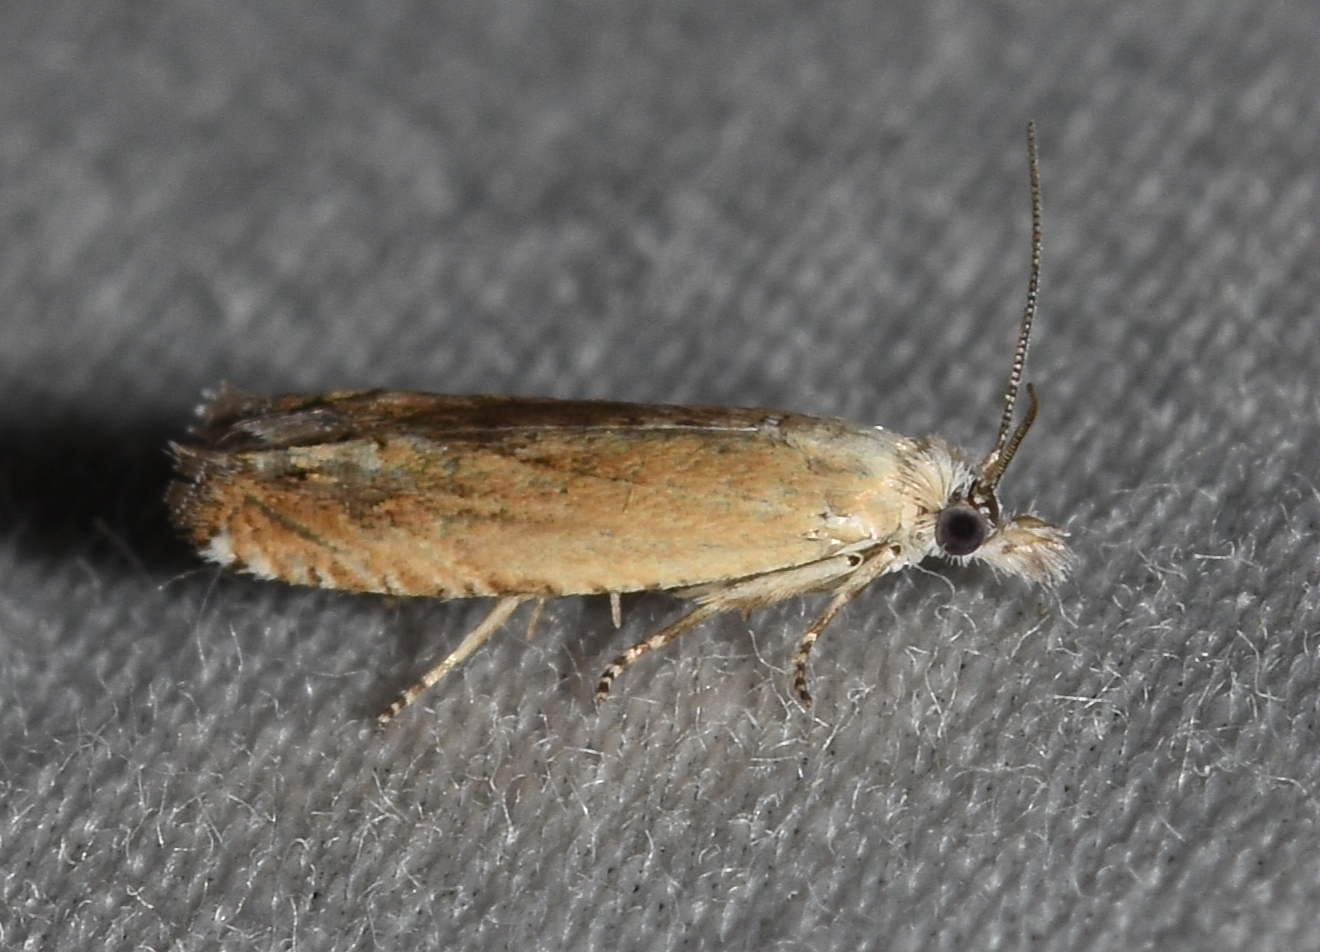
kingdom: Animalia
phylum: Arthropoda
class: Insecta
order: Lepidoptera
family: Tortricidae
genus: Pelochrista
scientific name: Pelochrista cataclystiana
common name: Goldenrod pelochrista moth
